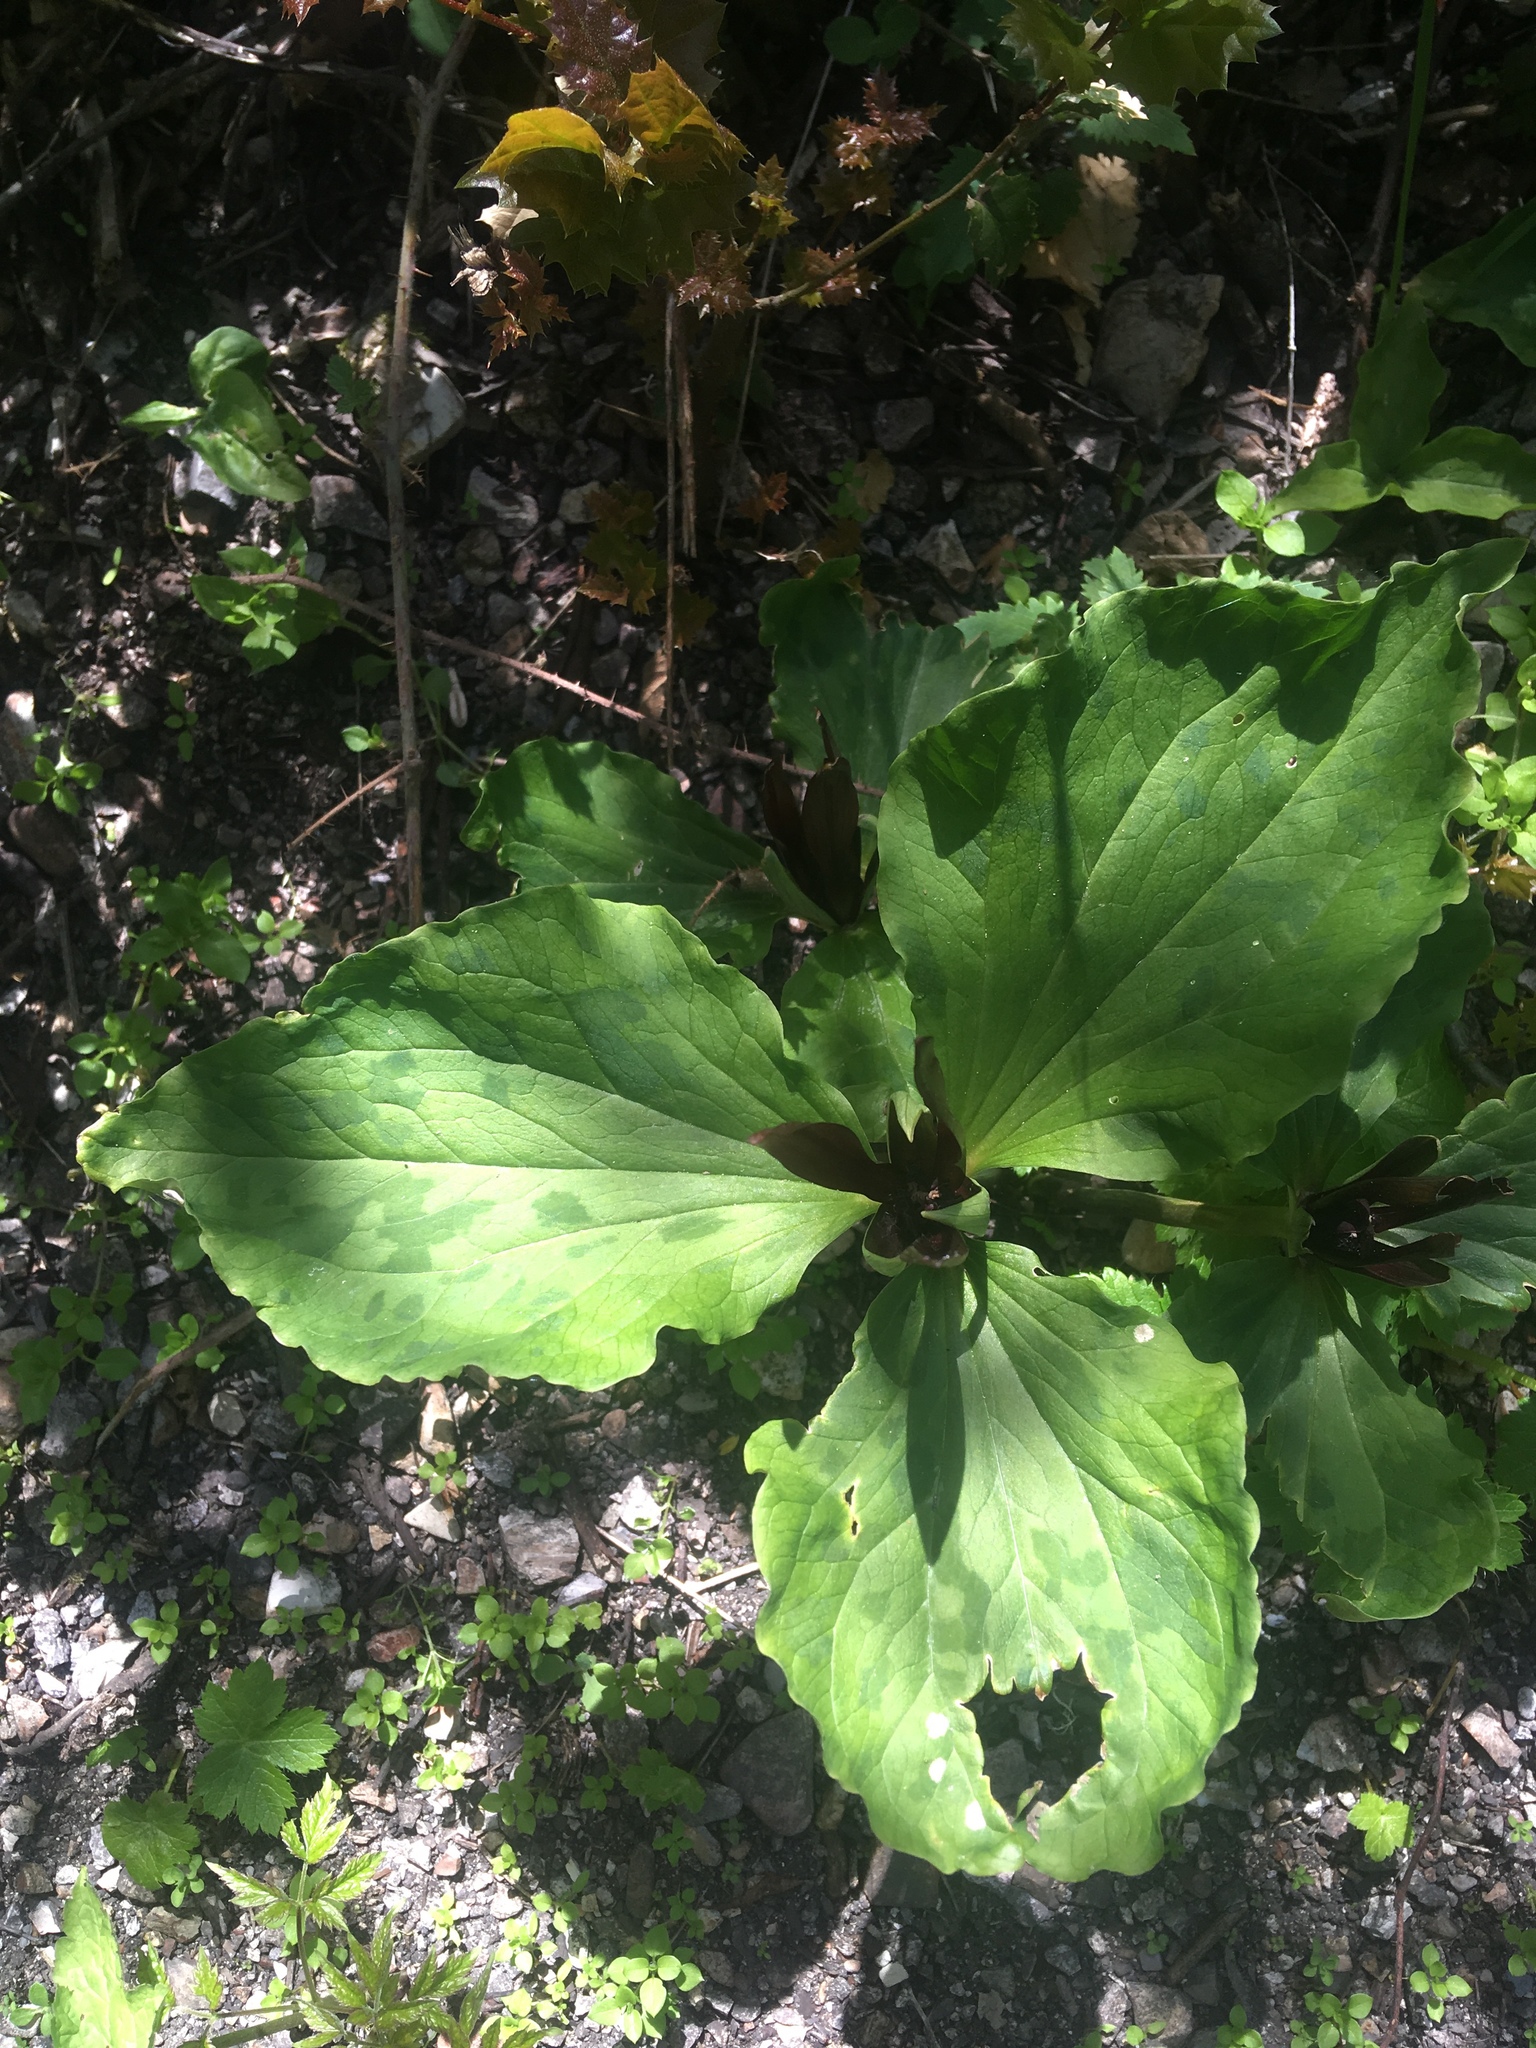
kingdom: Plantae
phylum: Tracheophyta
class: Liliopsida
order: Liliales
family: Melanthiaceae
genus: Trillium
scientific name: Trillium angustipetalum
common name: Narrow-petaled trillium
